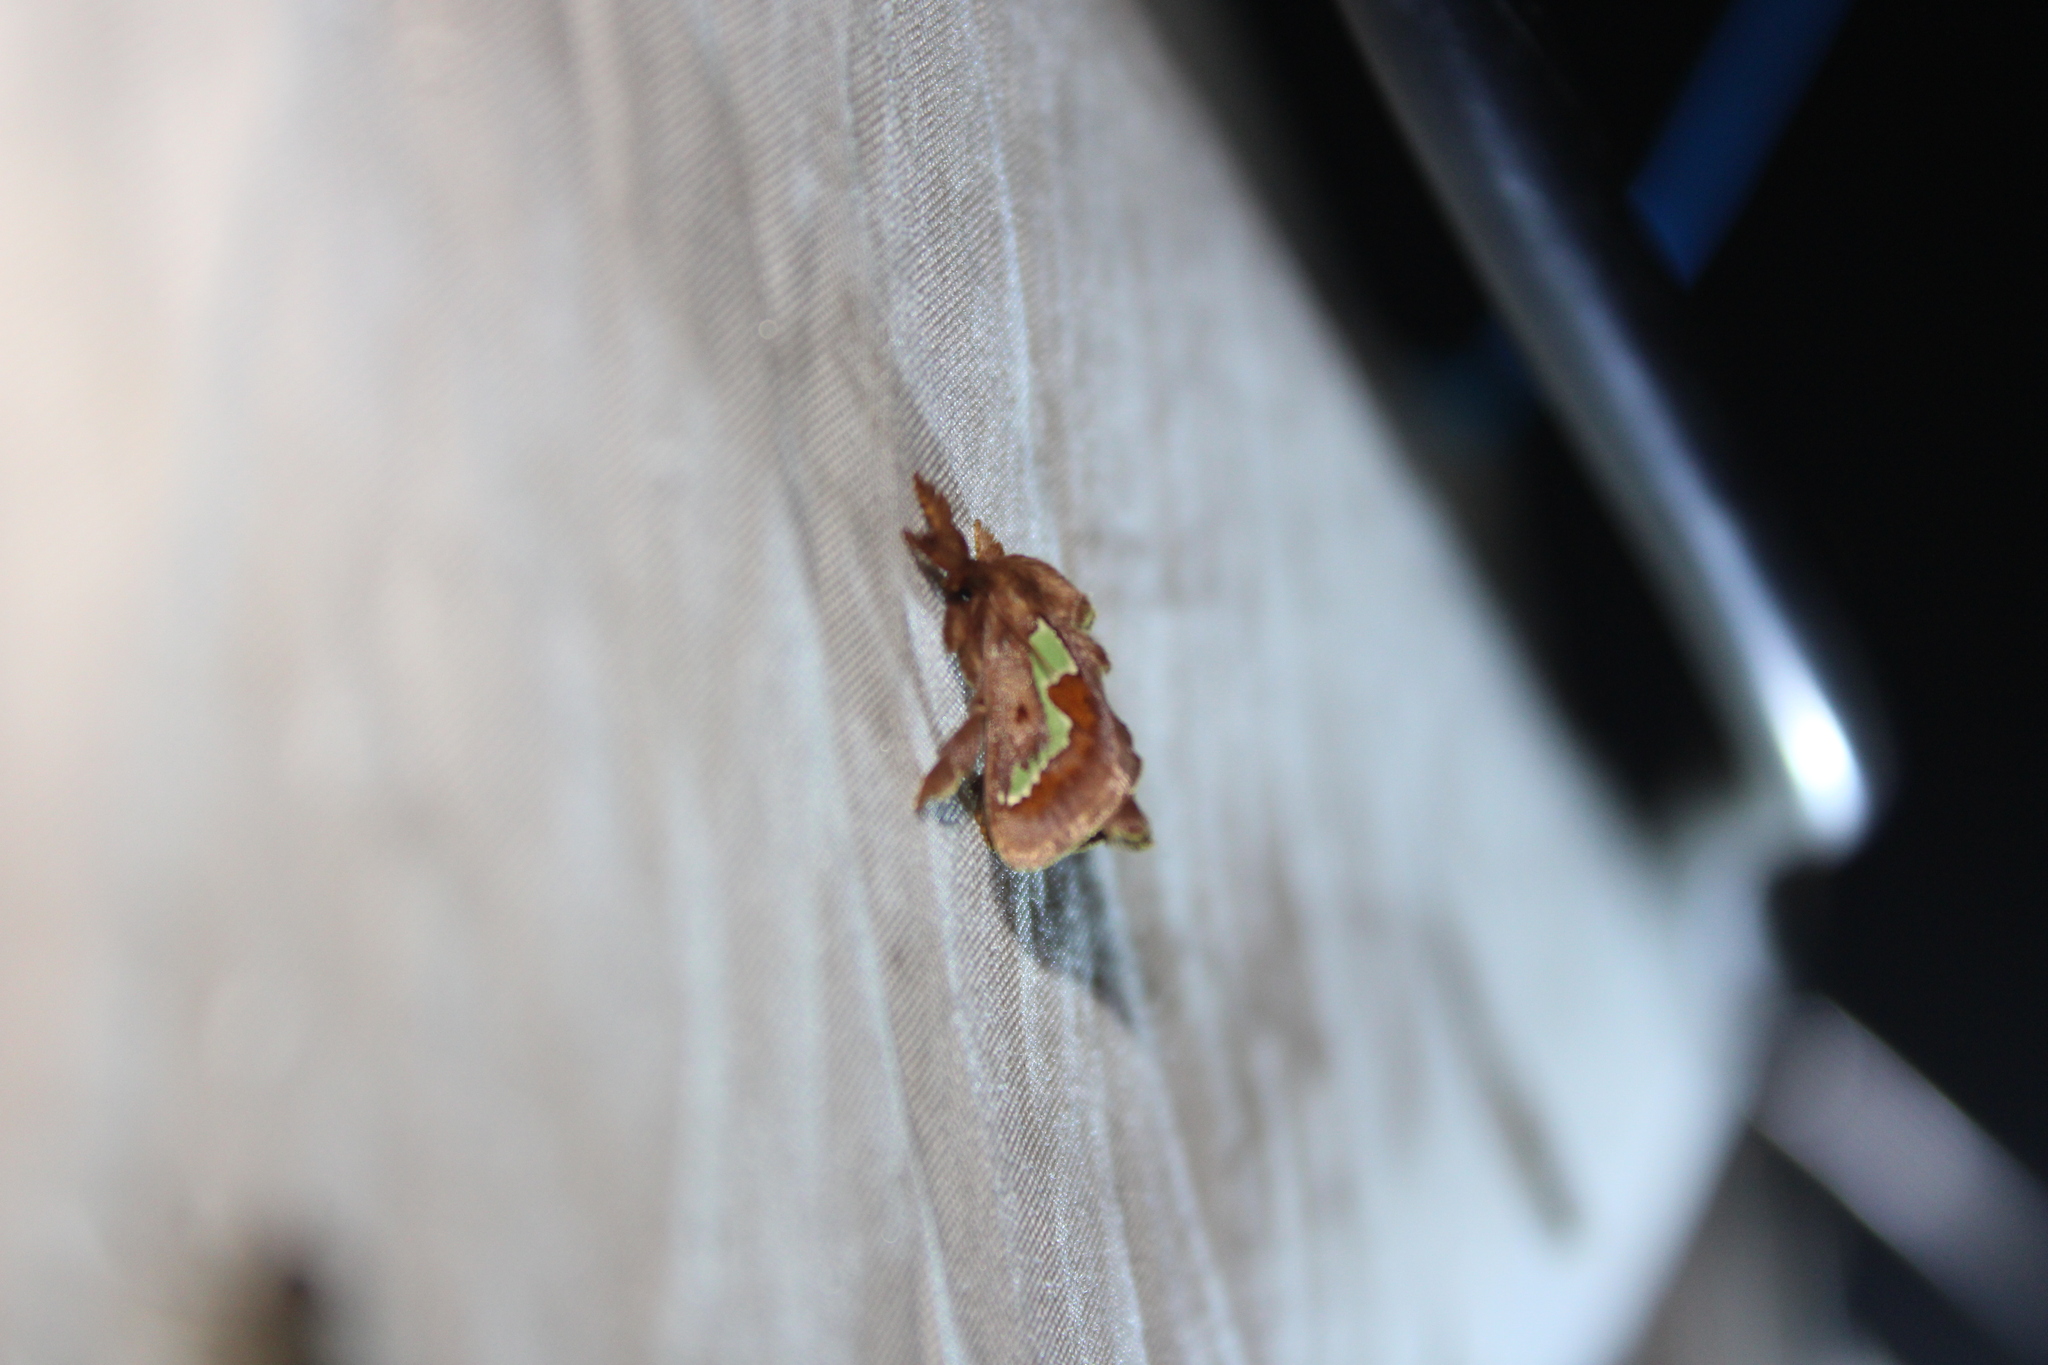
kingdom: Animalia
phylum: Arthropoda
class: Insecta
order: Lepidoptera
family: Limacodidae
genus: Euclea
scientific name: Euclea delphinii
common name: Spiny oak-slug moth
